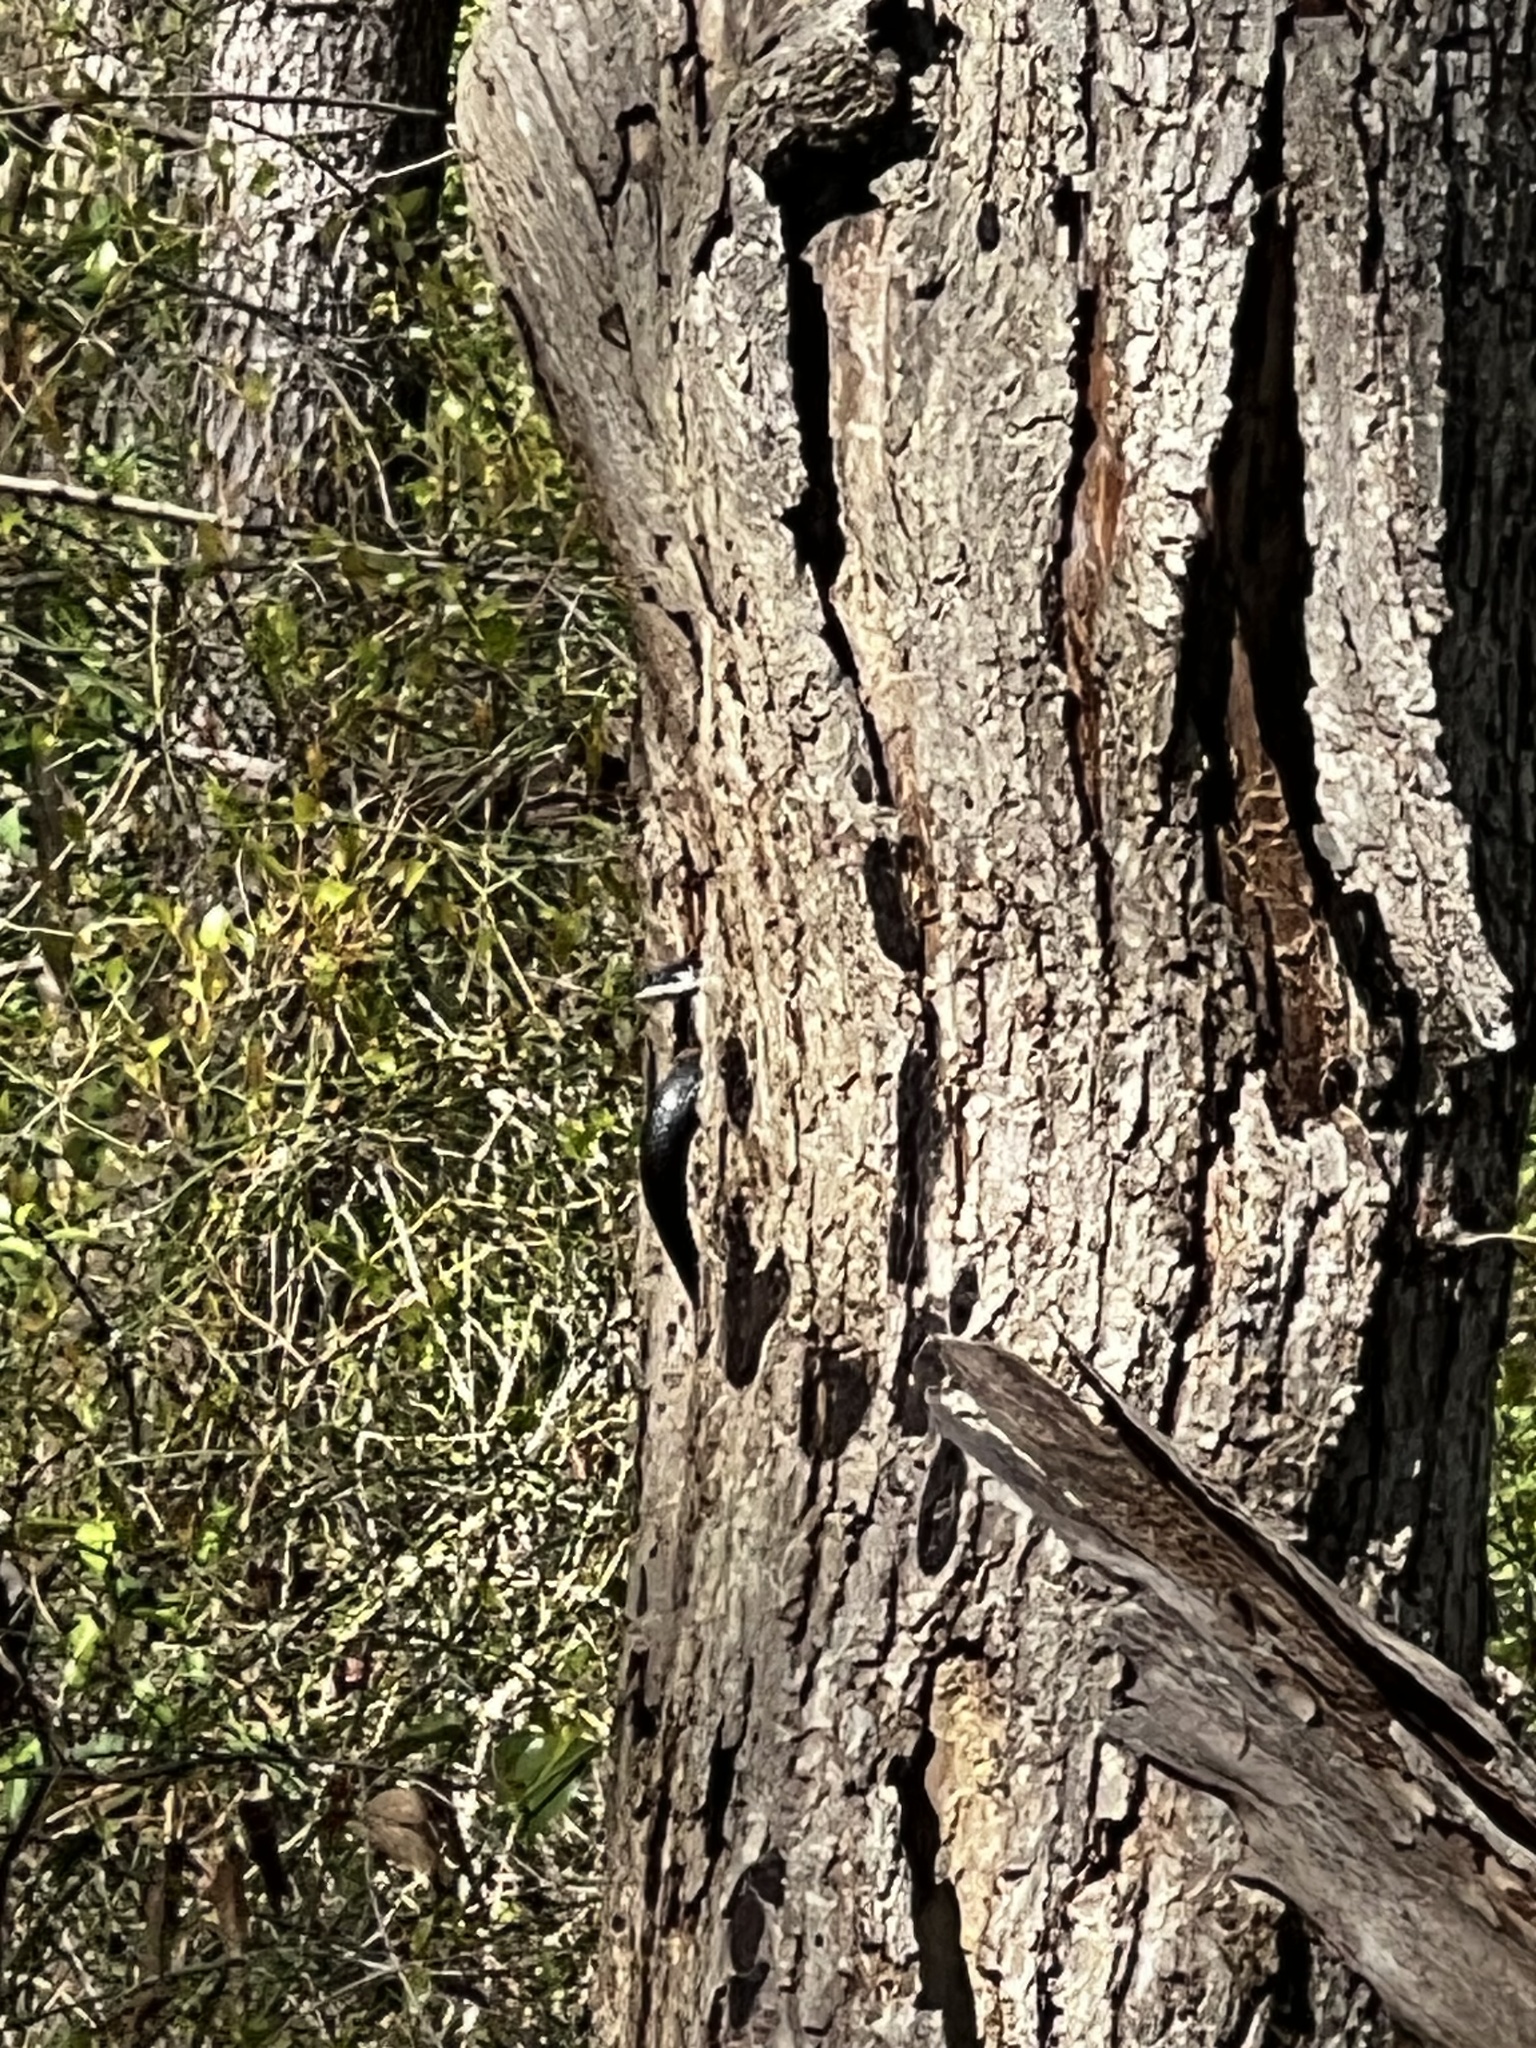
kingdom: Animalia
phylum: Chordata
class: Squamata
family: Colubridae
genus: Pantherophis
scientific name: Pantherophis
